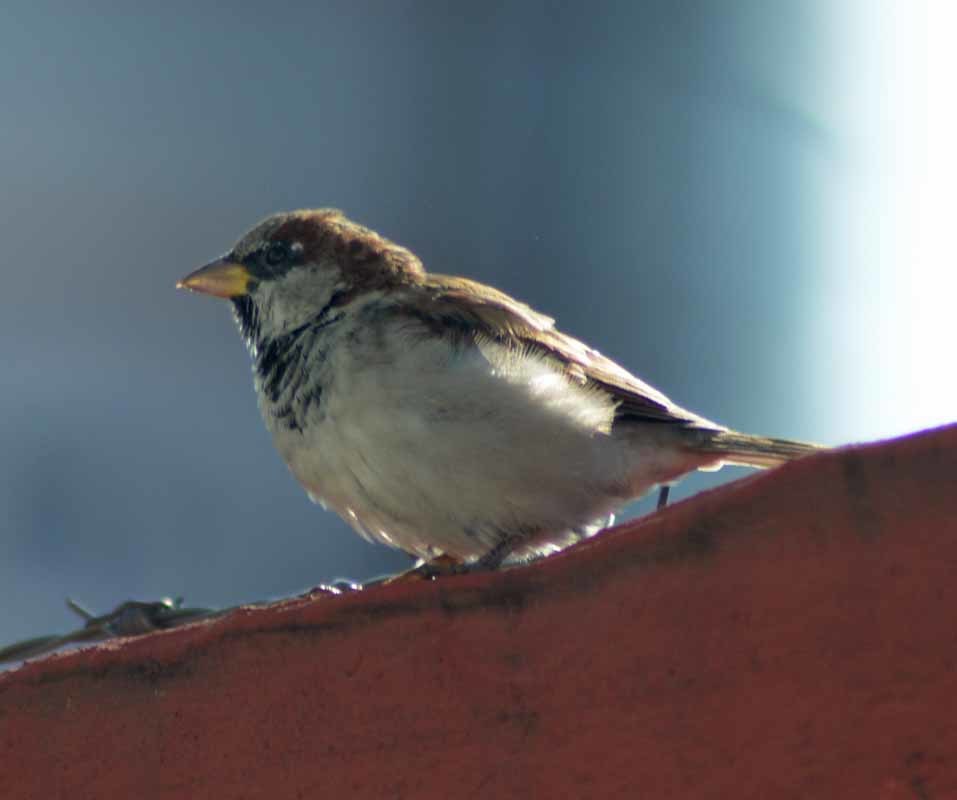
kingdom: Animalia
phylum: Chordata
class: Aves
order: Passeriformes
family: Passeridae
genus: Passer
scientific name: Passer domesticus
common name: House sparrow
